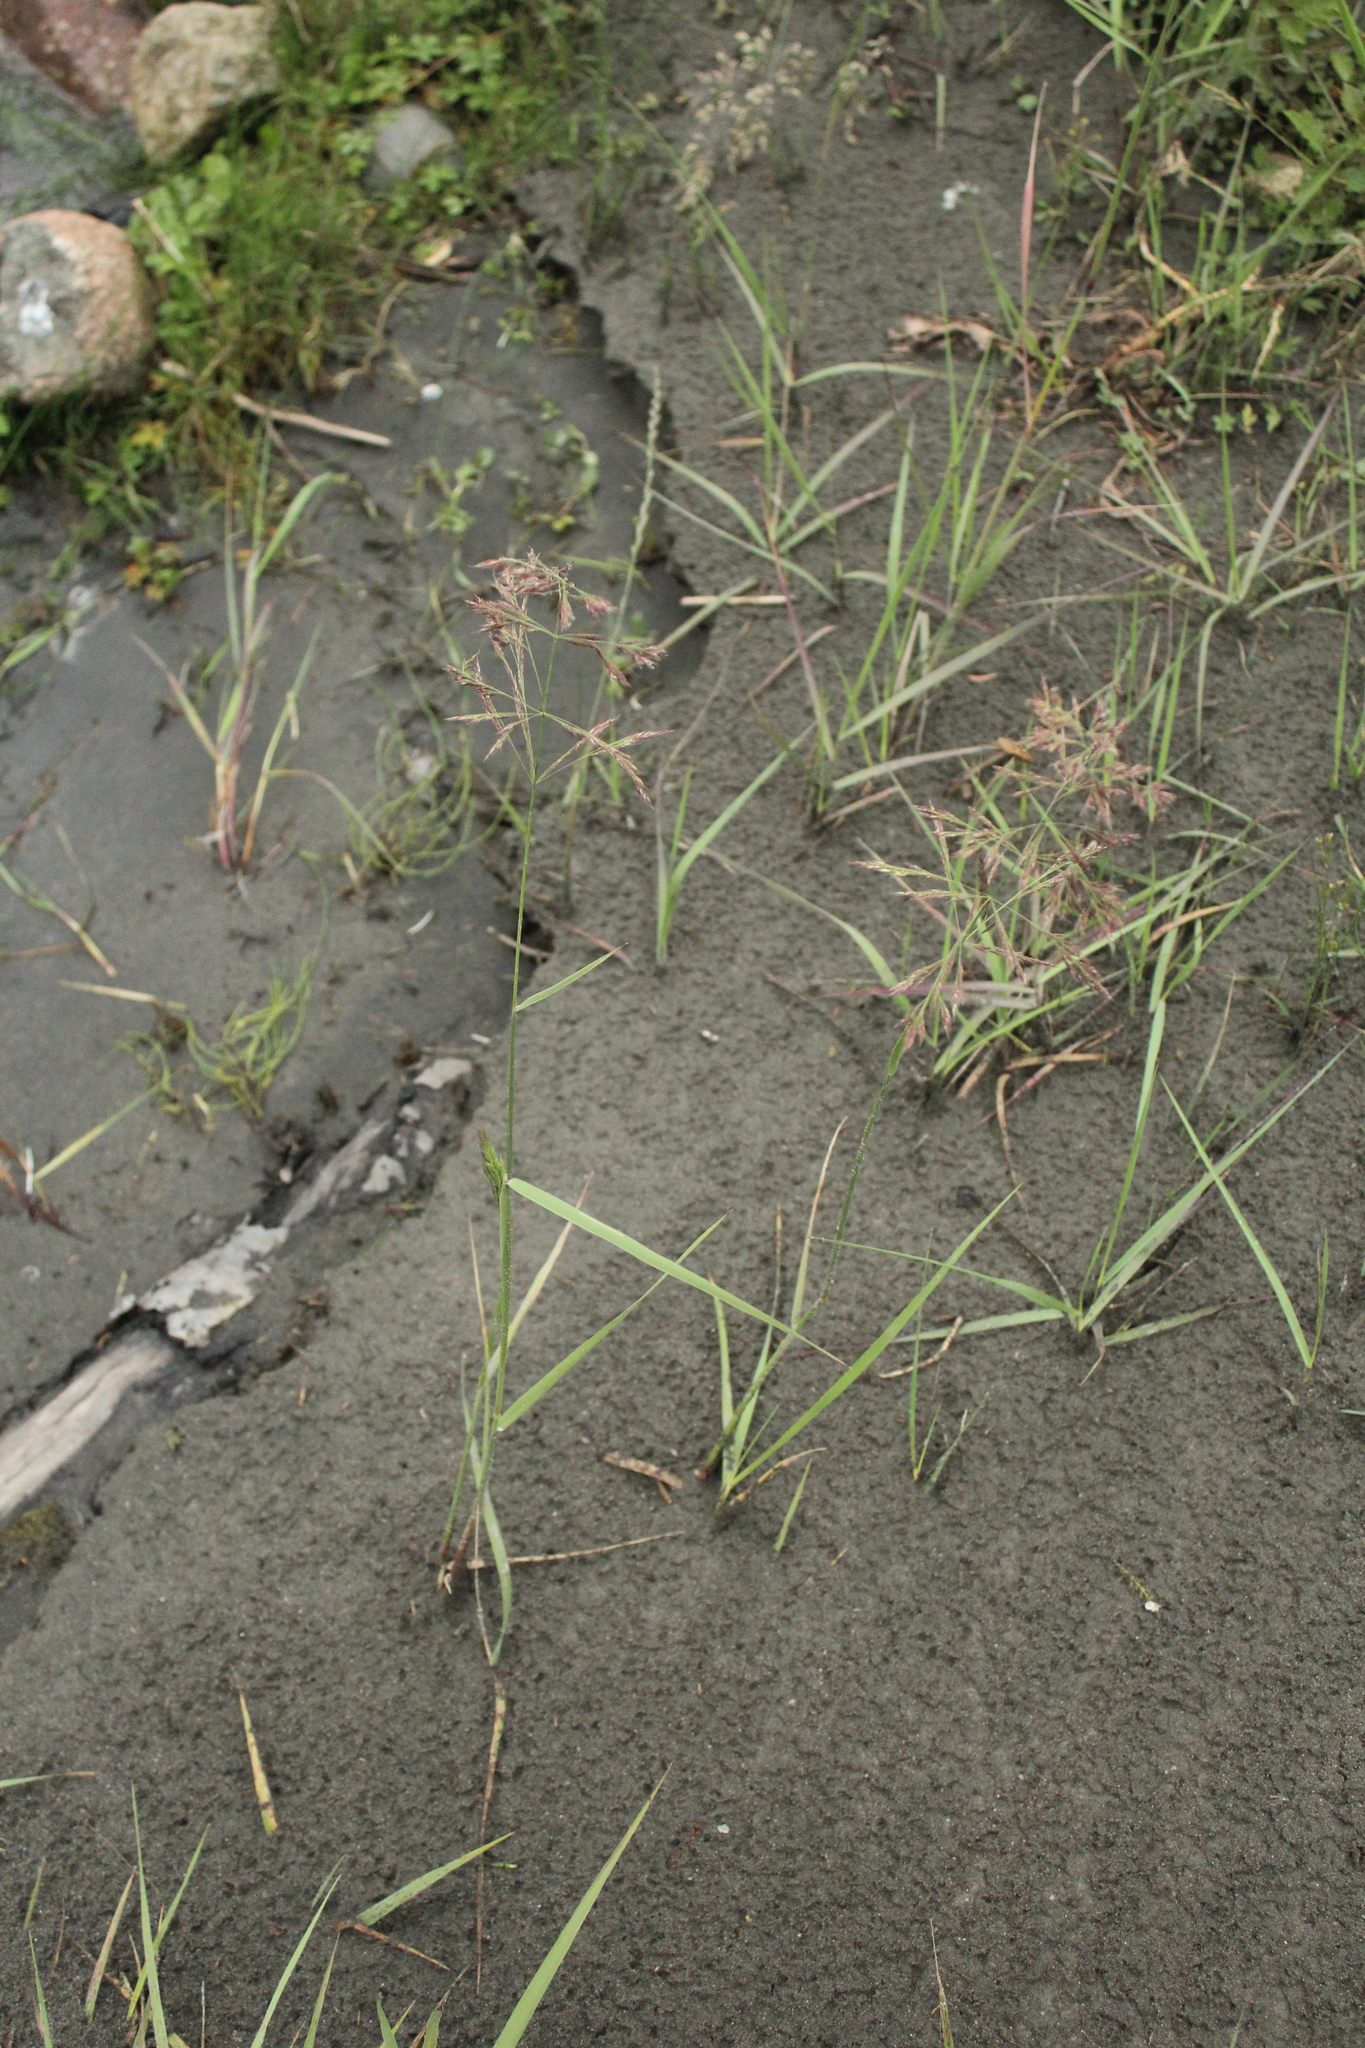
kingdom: Plantae
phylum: Tracheophyta
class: Liliopsida
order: Poales
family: Poaceae
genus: Calamagrostis
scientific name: Calamagrostis pseudophragmites
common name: Coastal small-reed
